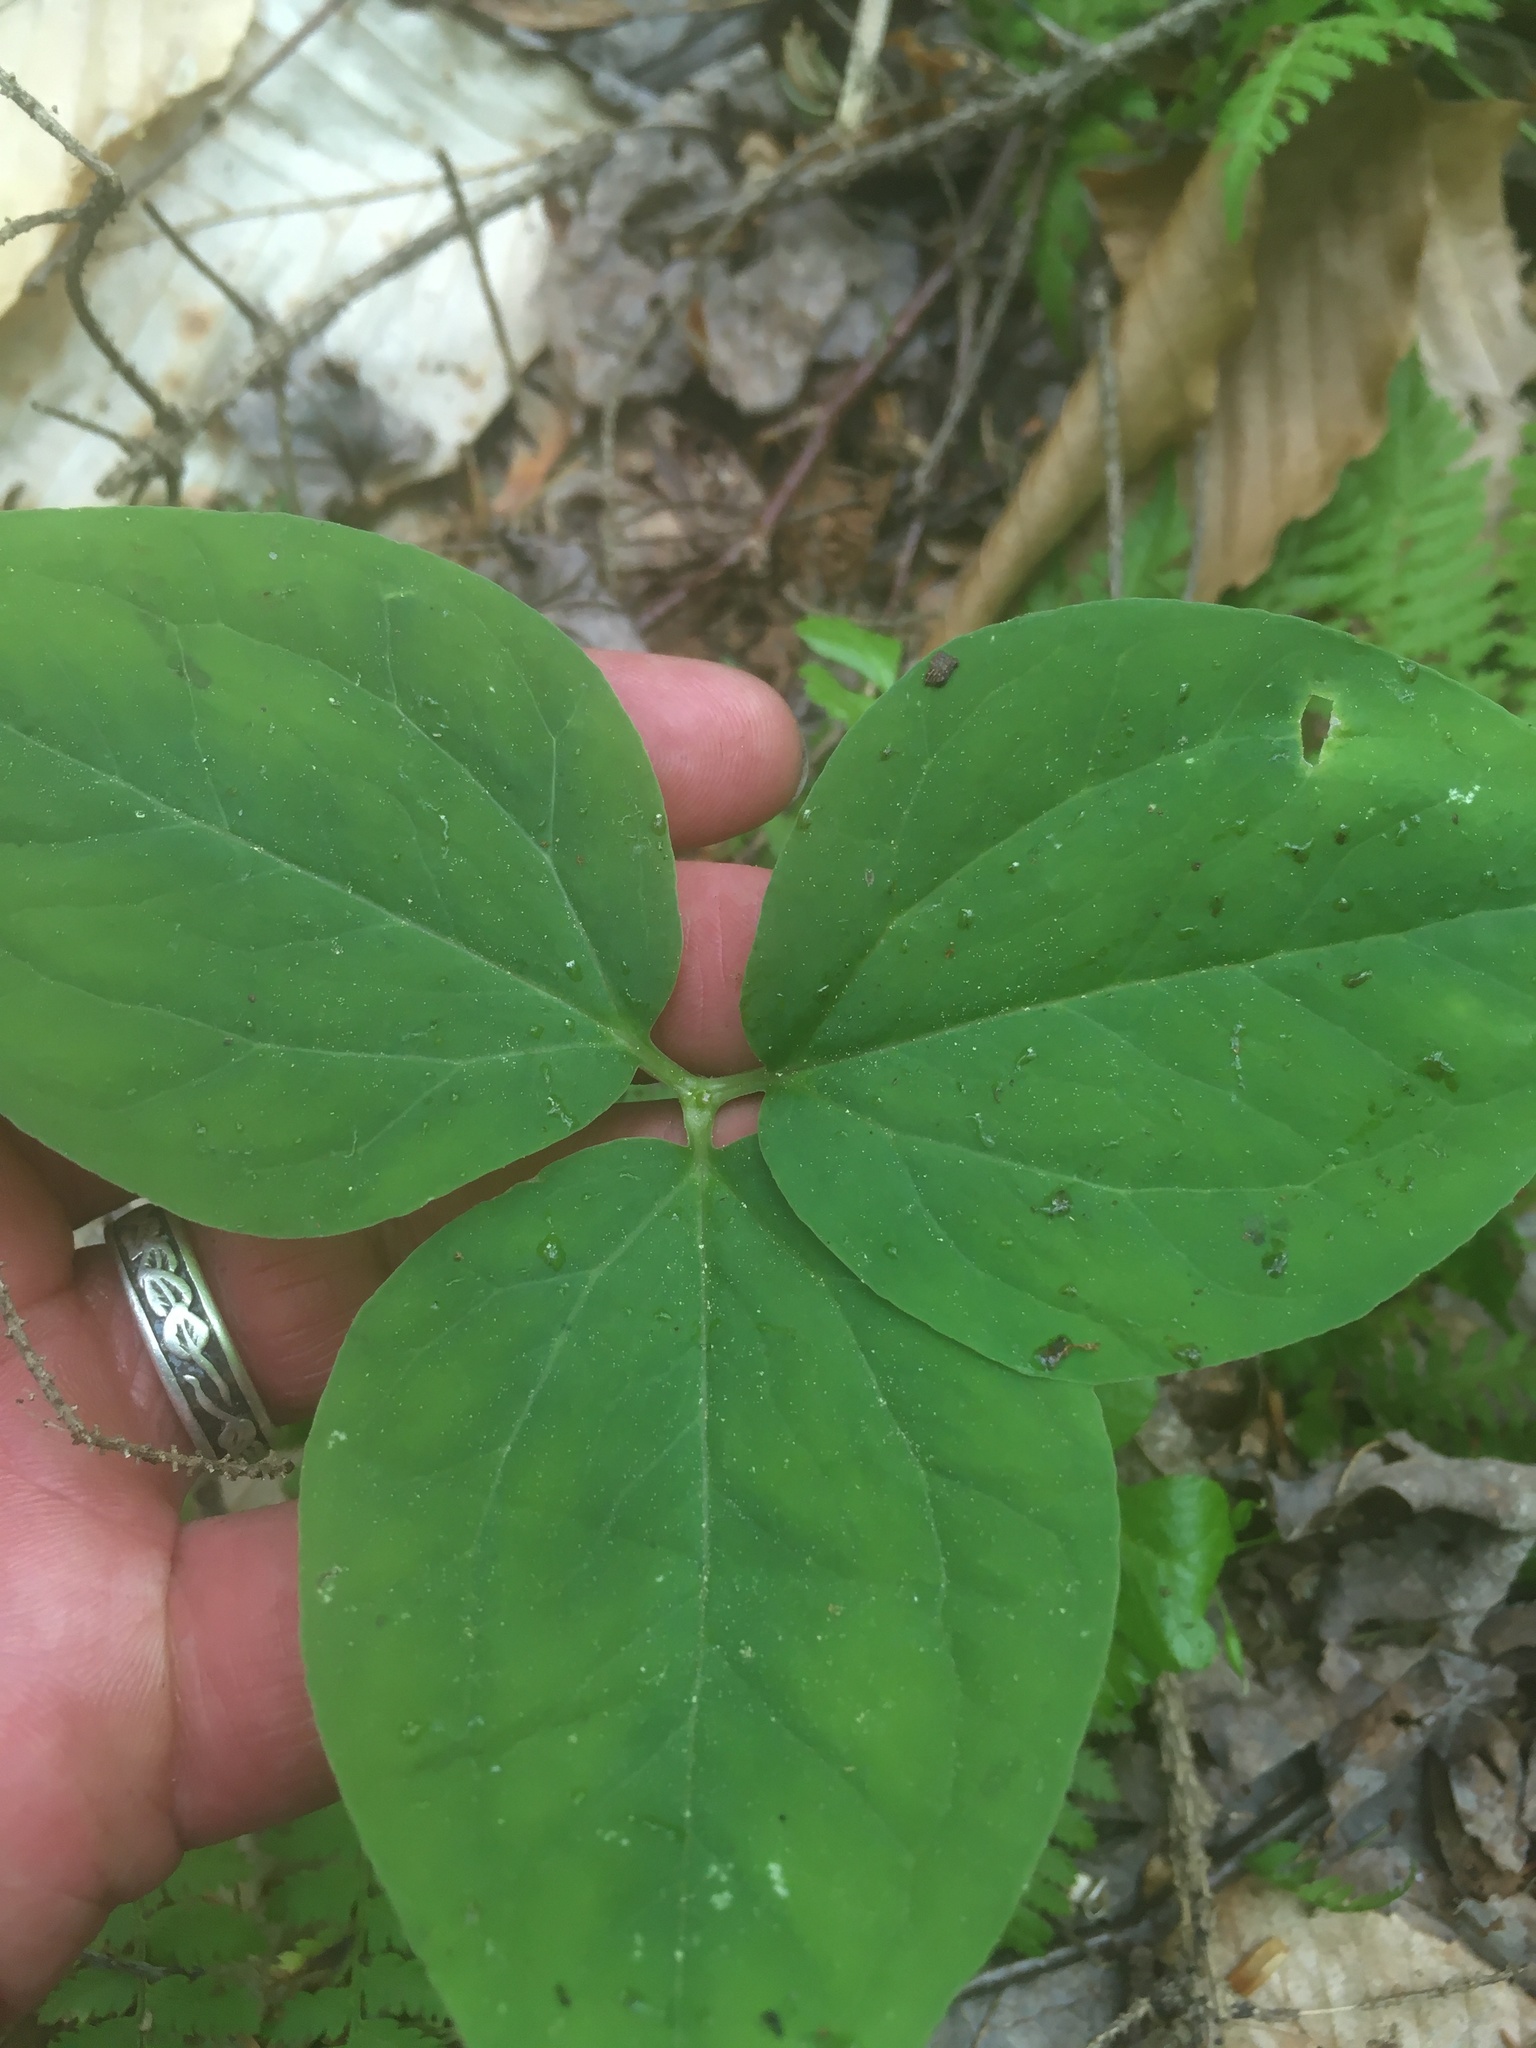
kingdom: Plantae
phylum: Tracheophyta
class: Liliopsida
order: Liliales
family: Melanthiaceae
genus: Trillium
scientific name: Trillium undulatum
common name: Paint trillium
